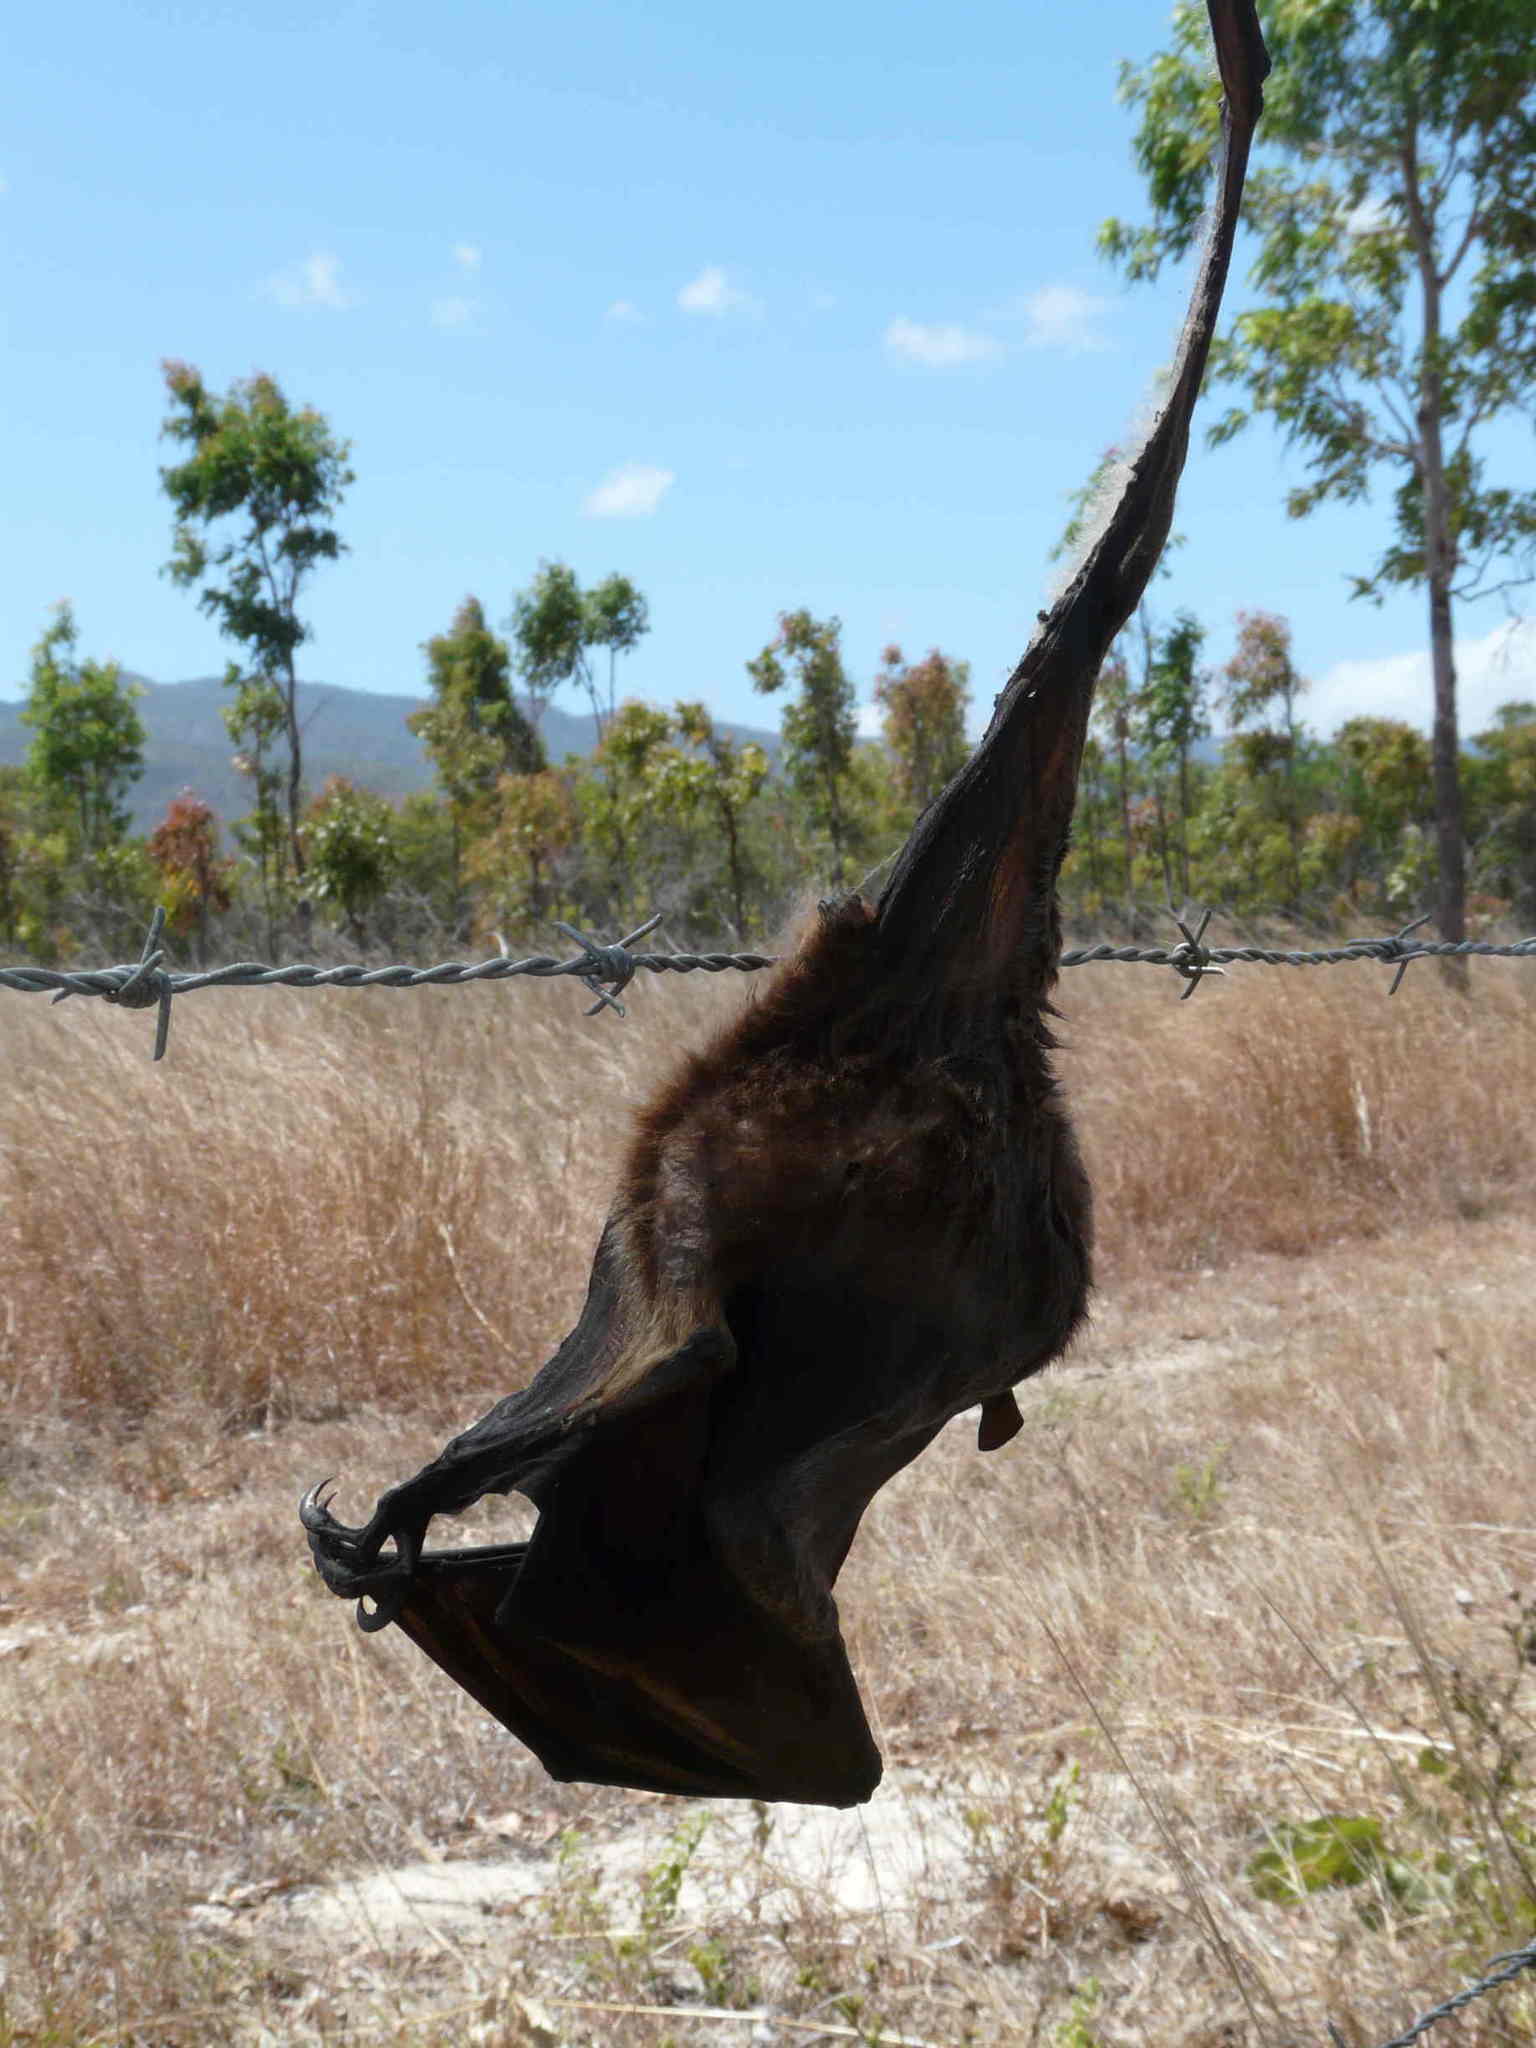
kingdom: Animalia
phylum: Chordata
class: Mammalia
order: Chiroptera
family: Pteropodidae
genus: Pteropus
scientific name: Pteropus scapulatus
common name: Little red flying fox
